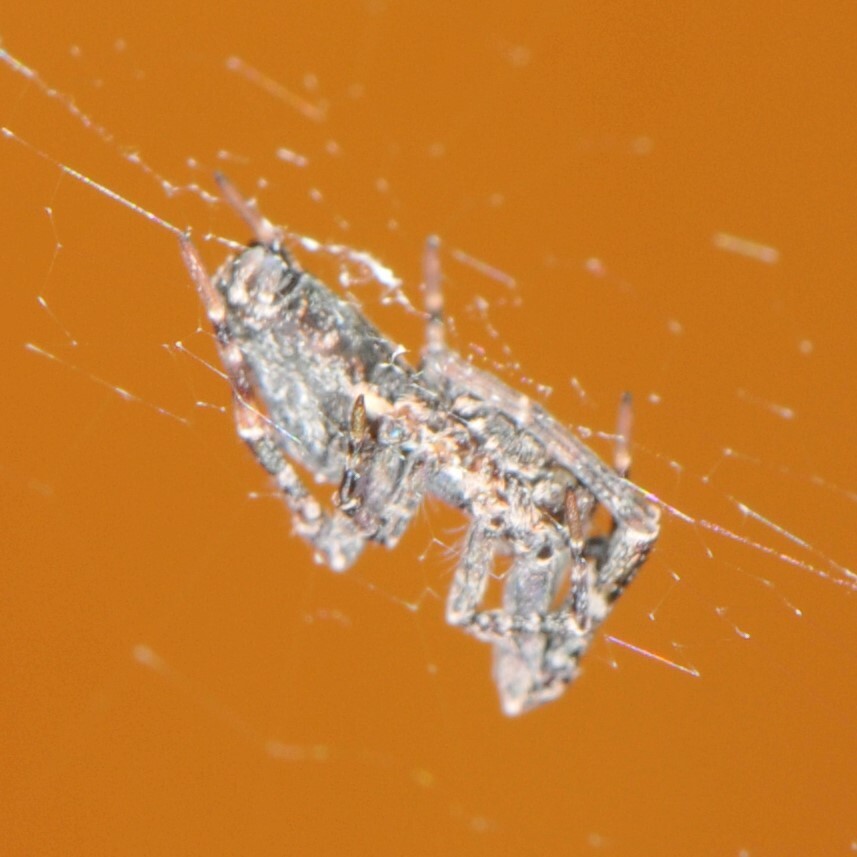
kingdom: Animalia
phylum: Arthropoda
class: Arachnida
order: Araneae
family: Uloboridae
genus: Philoponella
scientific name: Philoponella oweni
